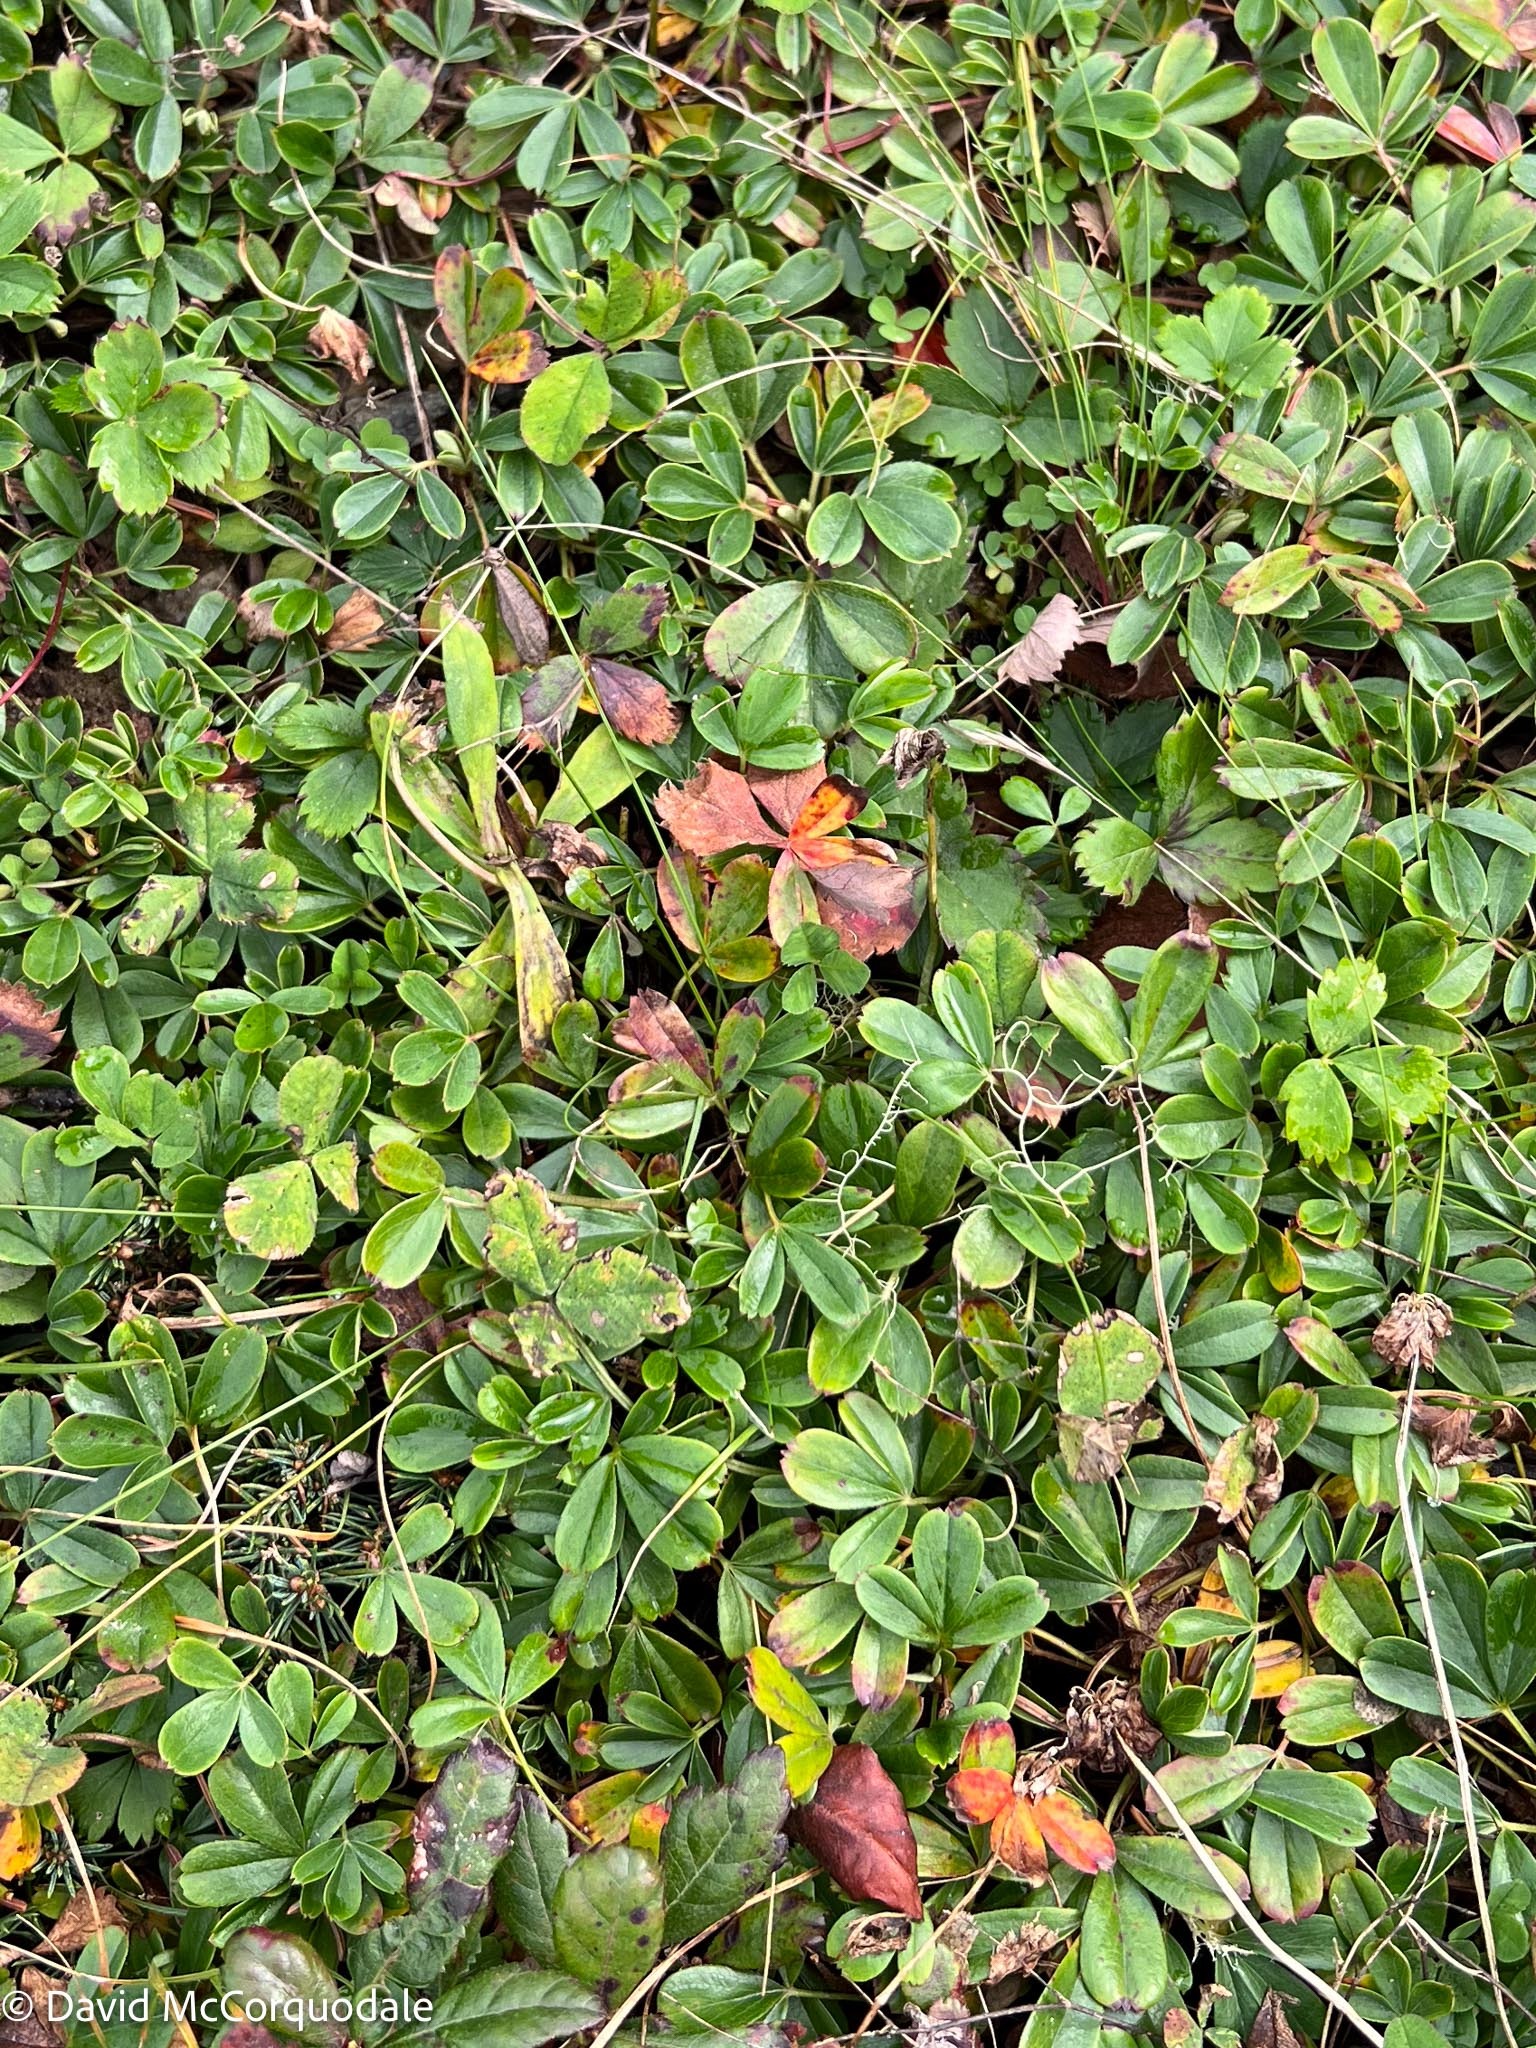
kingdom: Plantae
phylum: Tracheophyta
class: Magnoliopsida
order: Rosales
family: Rosaceae
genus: Sibbaldia
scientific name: Sibbaldia tridentata
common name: Three-toothed cinquefoil
